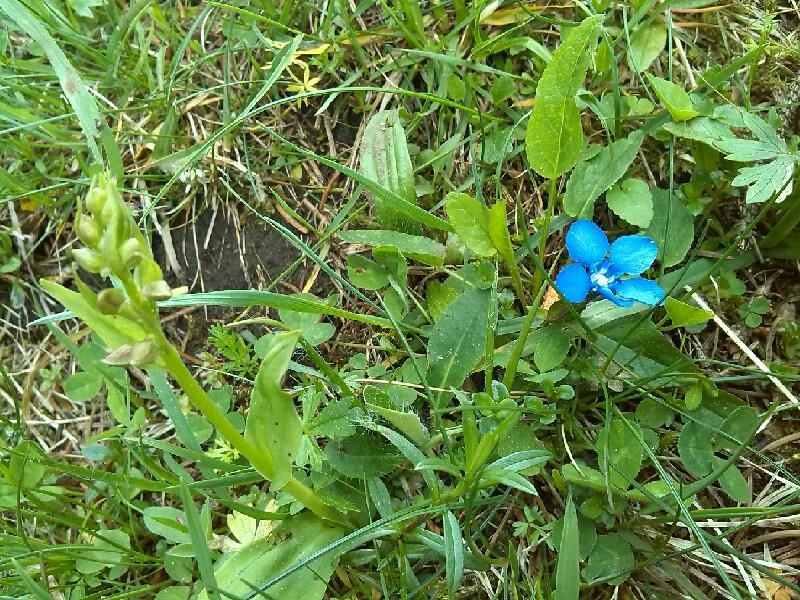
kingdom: Plantae
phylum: Tracheophyta
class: Magnoliopsida
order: Gentianales
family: Gentianaceae
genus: Gentiana
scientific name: Gentiana verna
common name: Spring gentian
